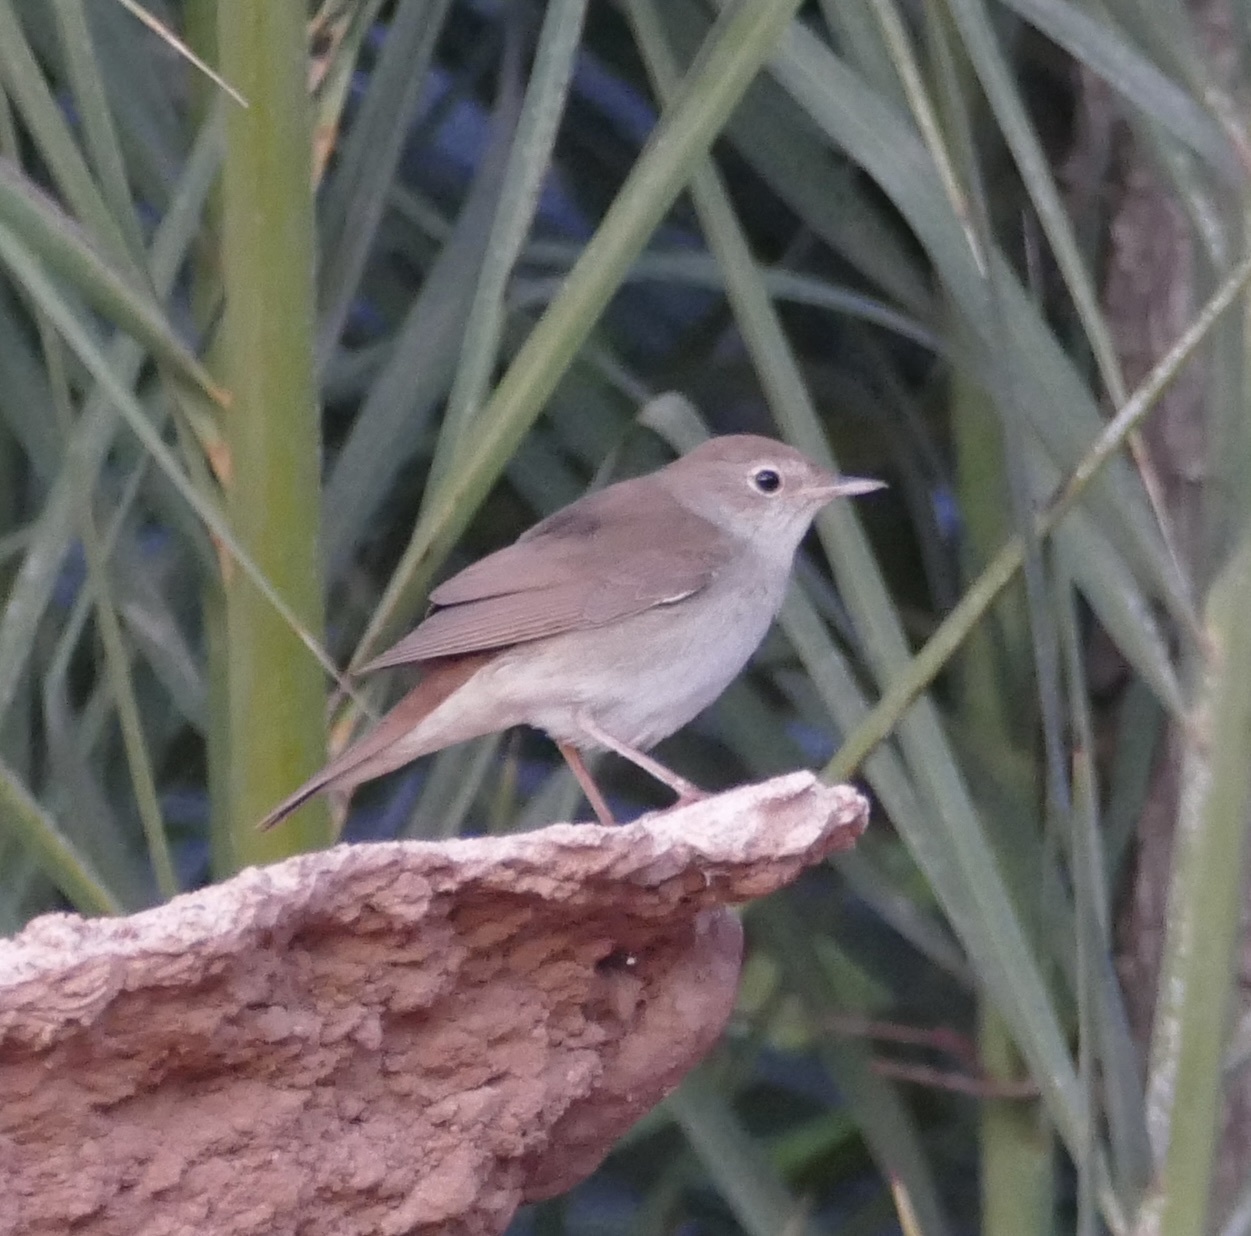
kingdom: Animalia
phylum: Chordata
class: Aves
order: Passeriformes
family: Muscicapidae
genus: Luscinia
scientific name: Luscinia megarhynchos
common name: Common nightingale
